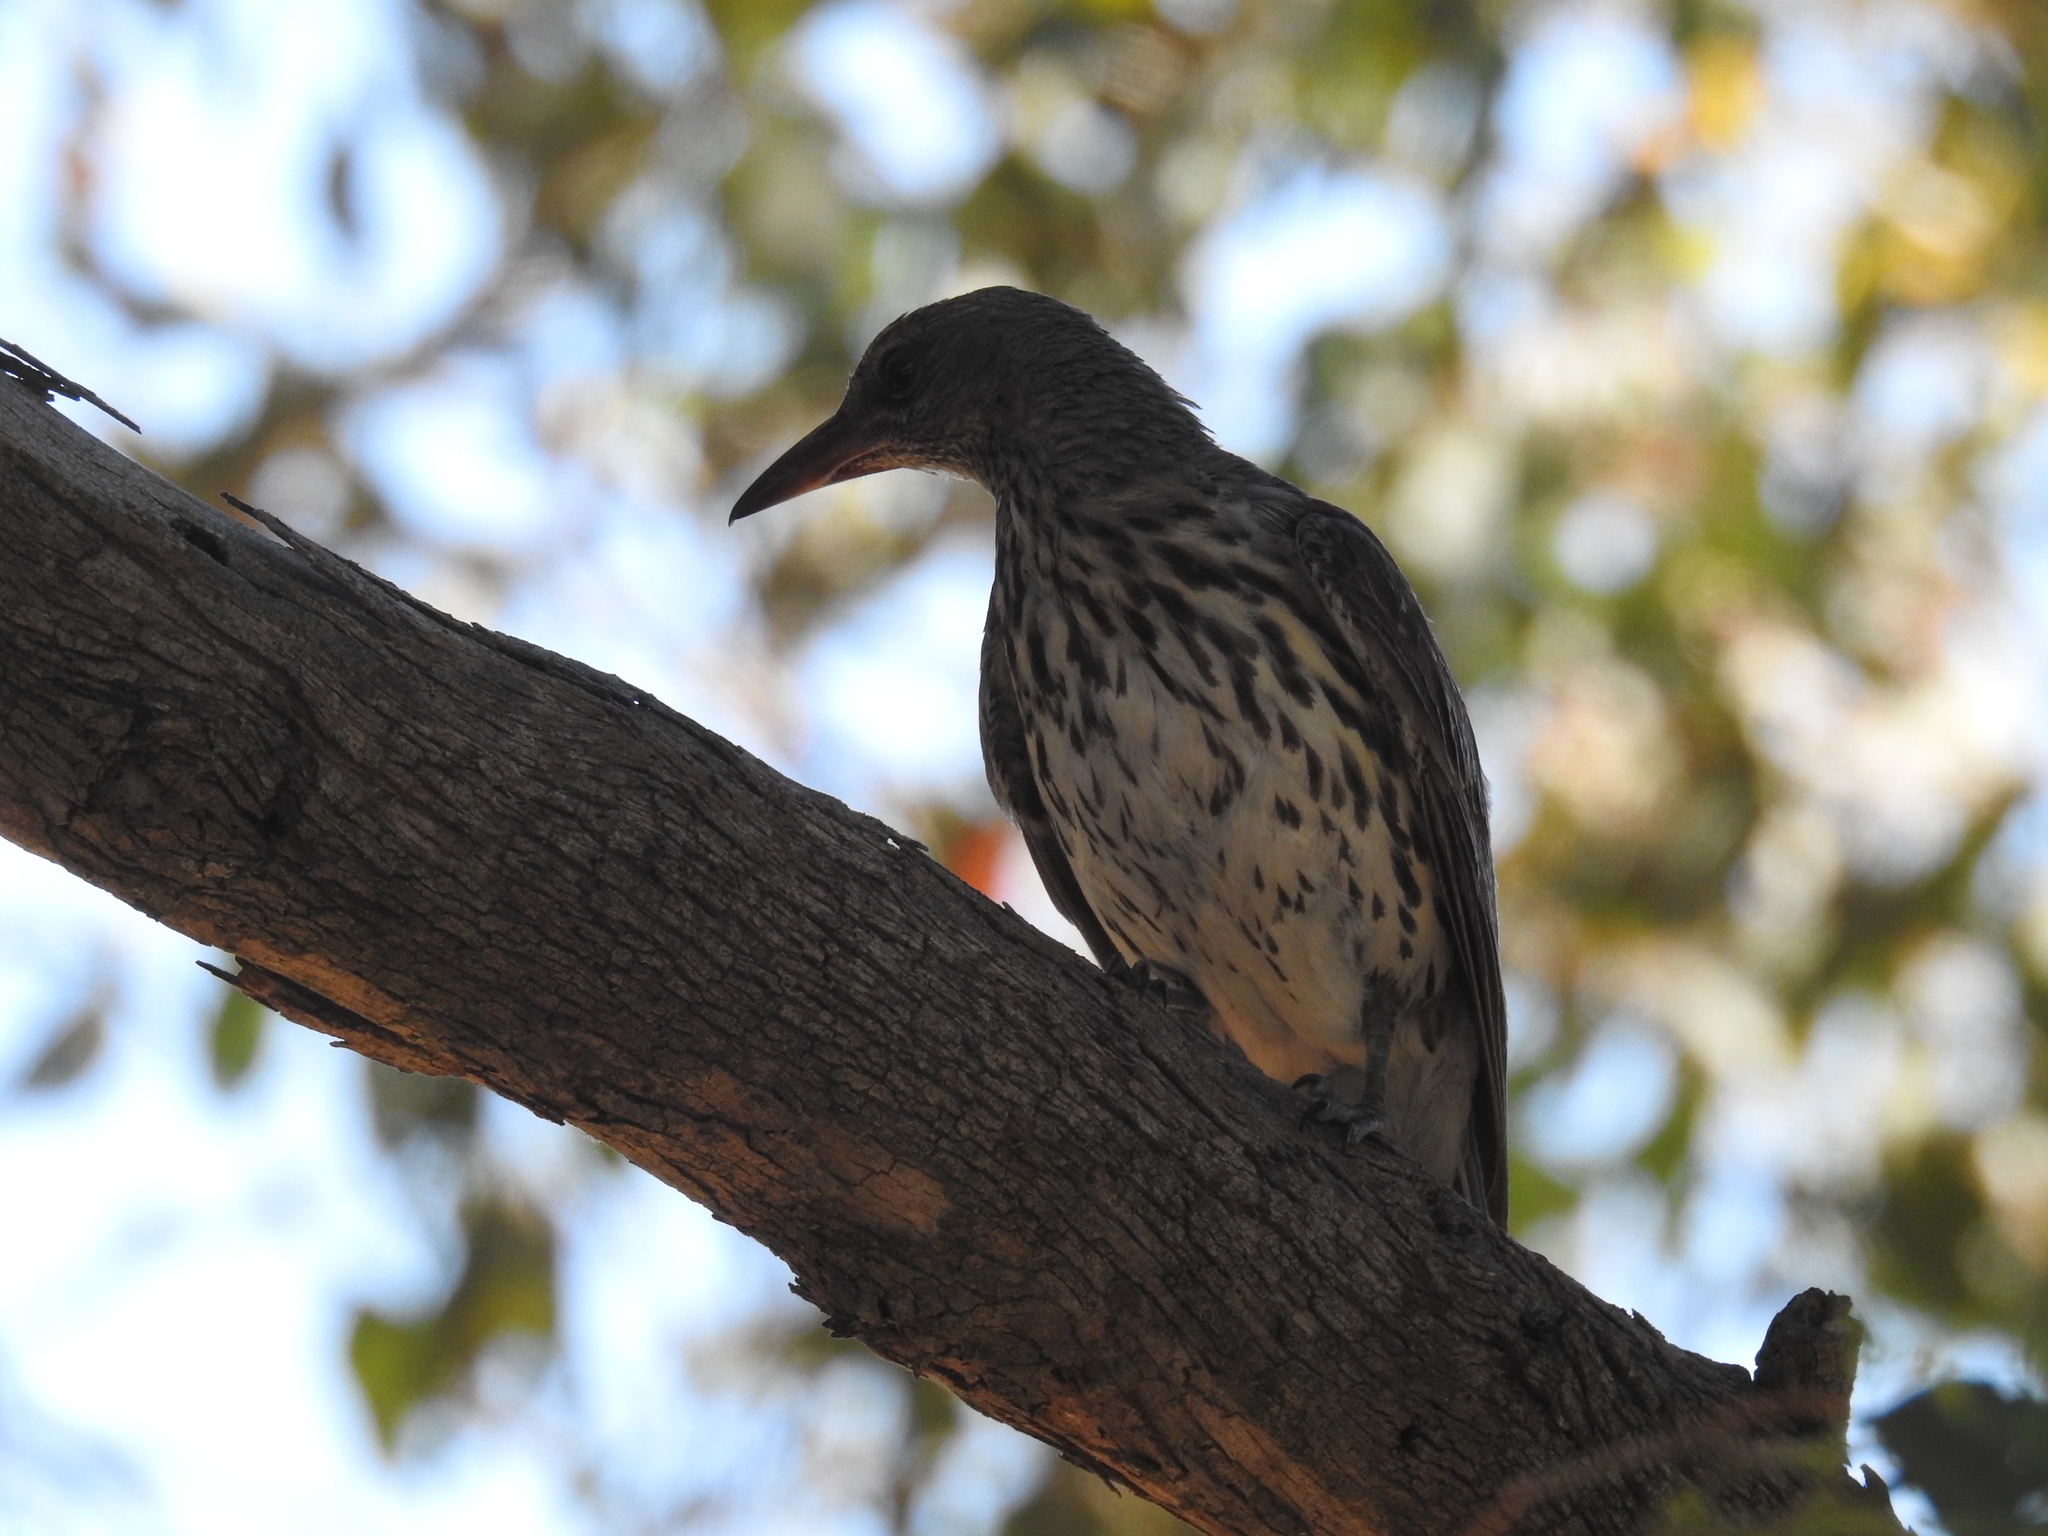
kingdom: Animalia
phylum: Chordata
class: Aves
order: Passeriformes
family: Oriolidae
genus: Oriolus
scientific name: Oriolus sagittatus
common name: Olive-backed oriole
